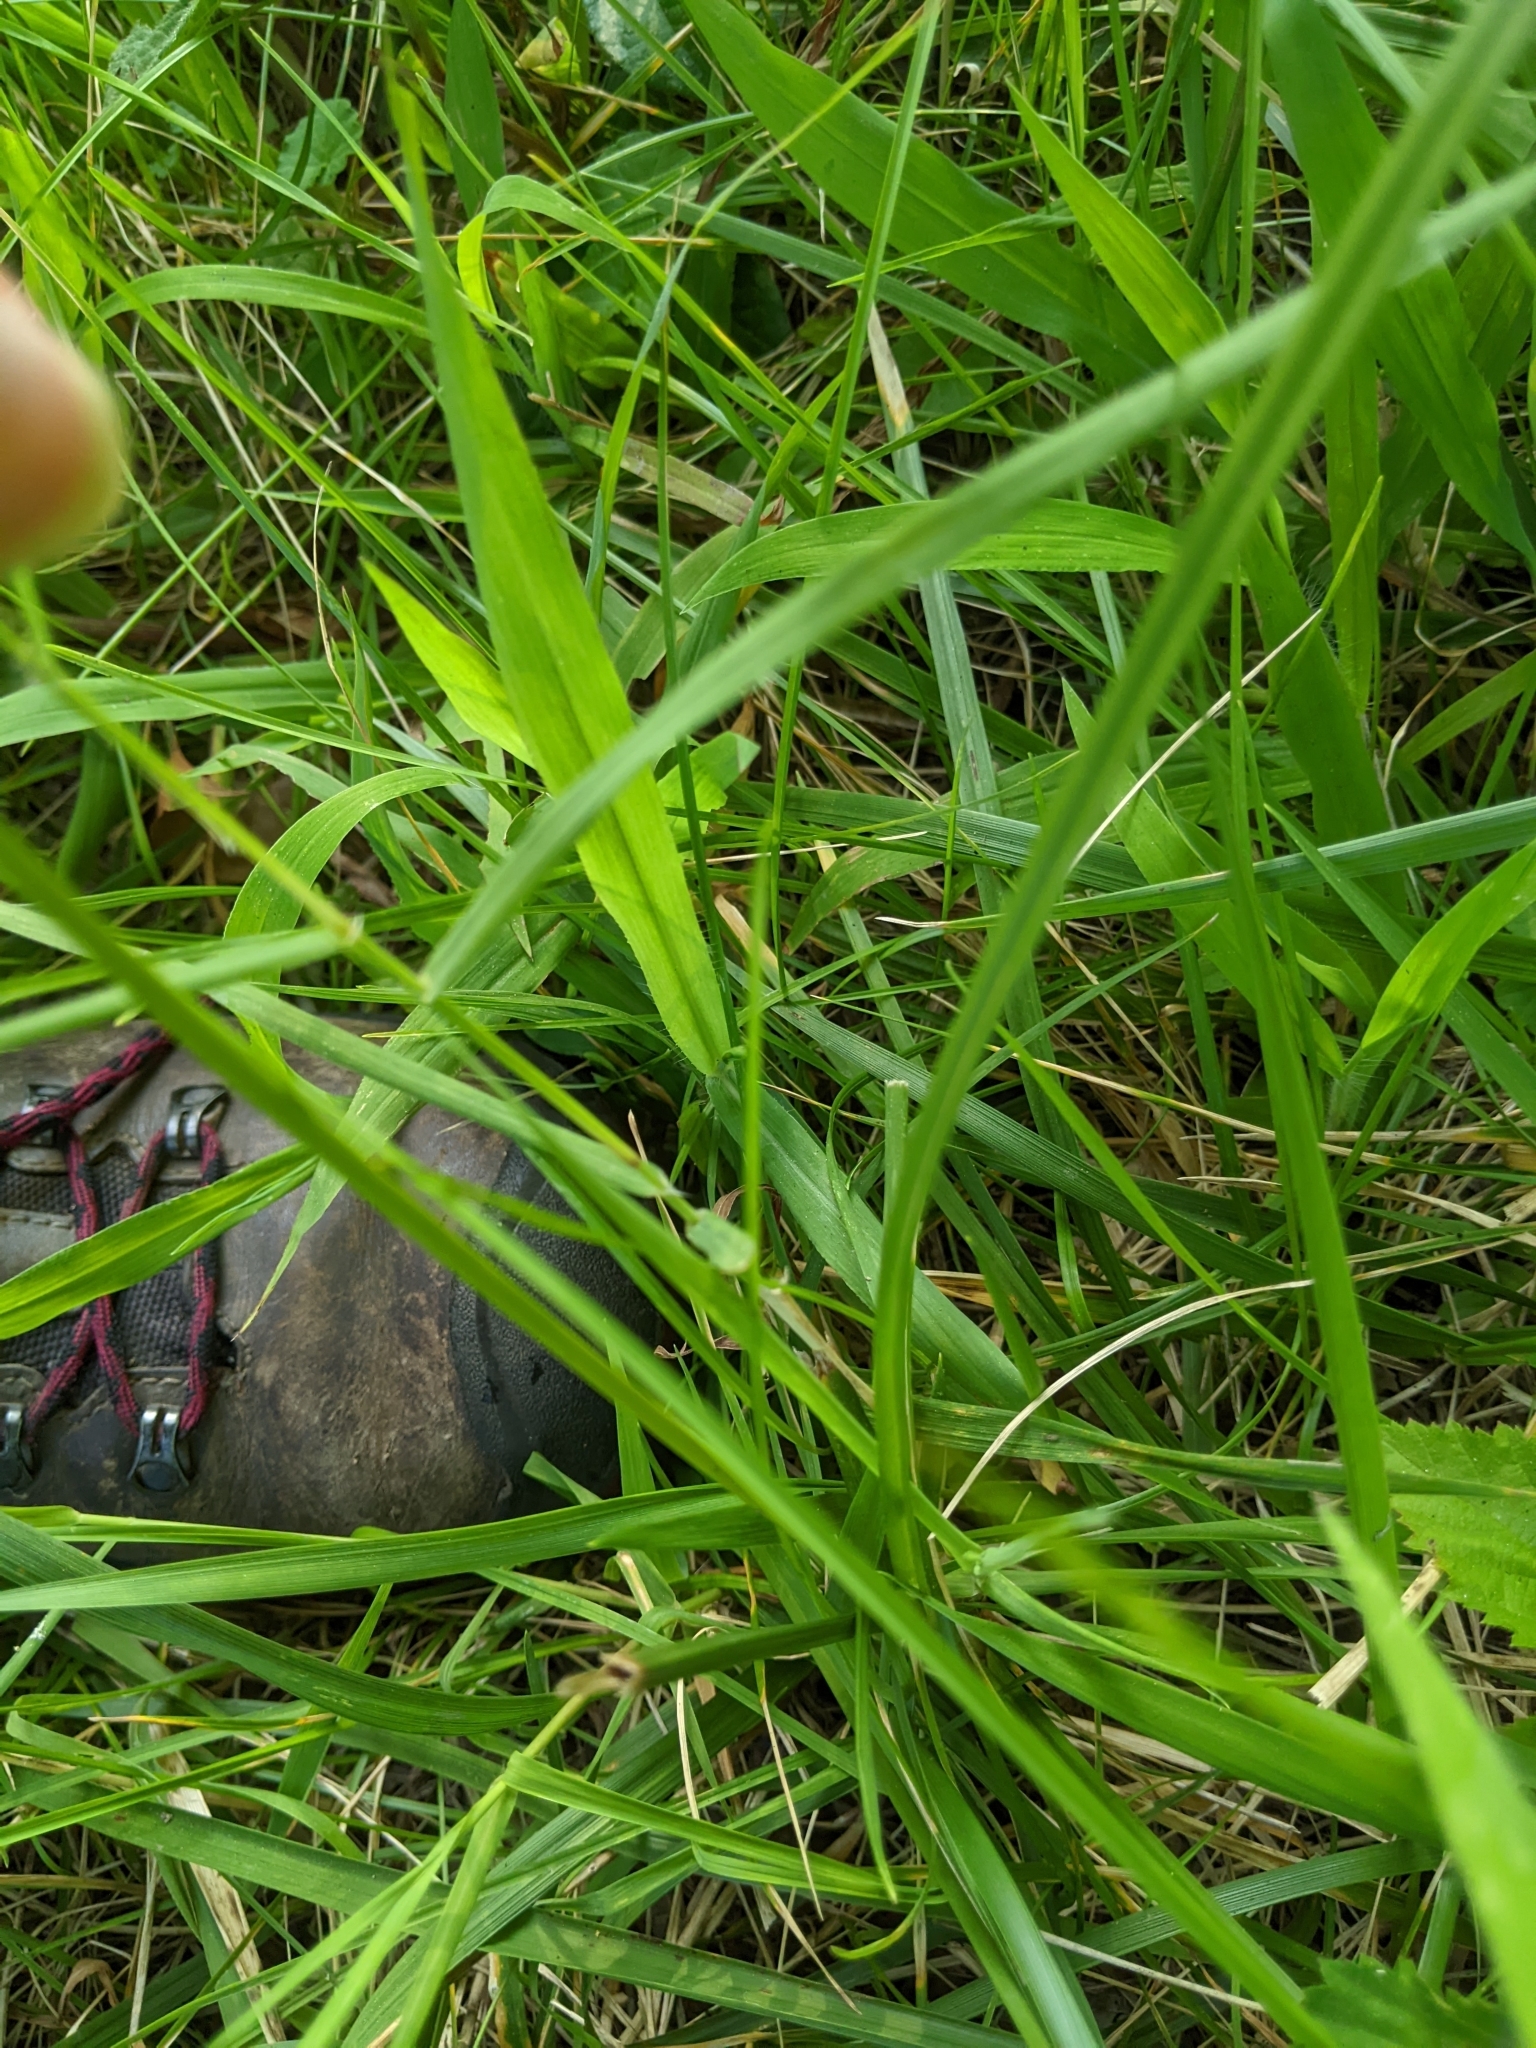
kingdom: Plantae
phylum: Tracheophyta
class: Liliopsida
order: Poales
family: Cyperaceae
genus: Cyperus
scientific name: Cyperus echinatus
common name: Teasel sedge
